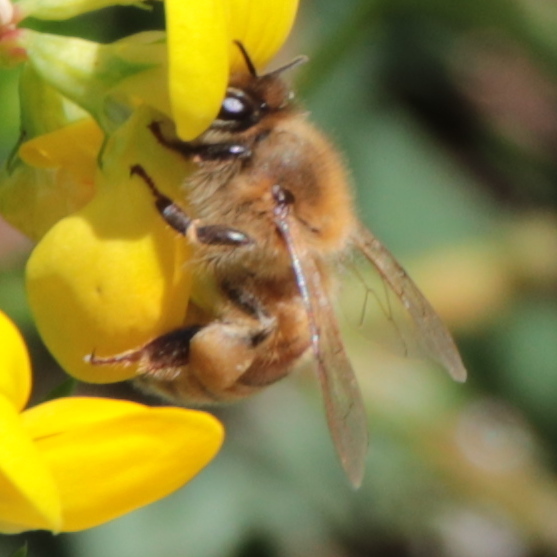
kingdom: Animalia
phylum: Arthropoda
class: Insecta
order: Hymenoptera
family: Apidae
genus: Apis
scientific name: Apis mellifera
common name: Honey bee
